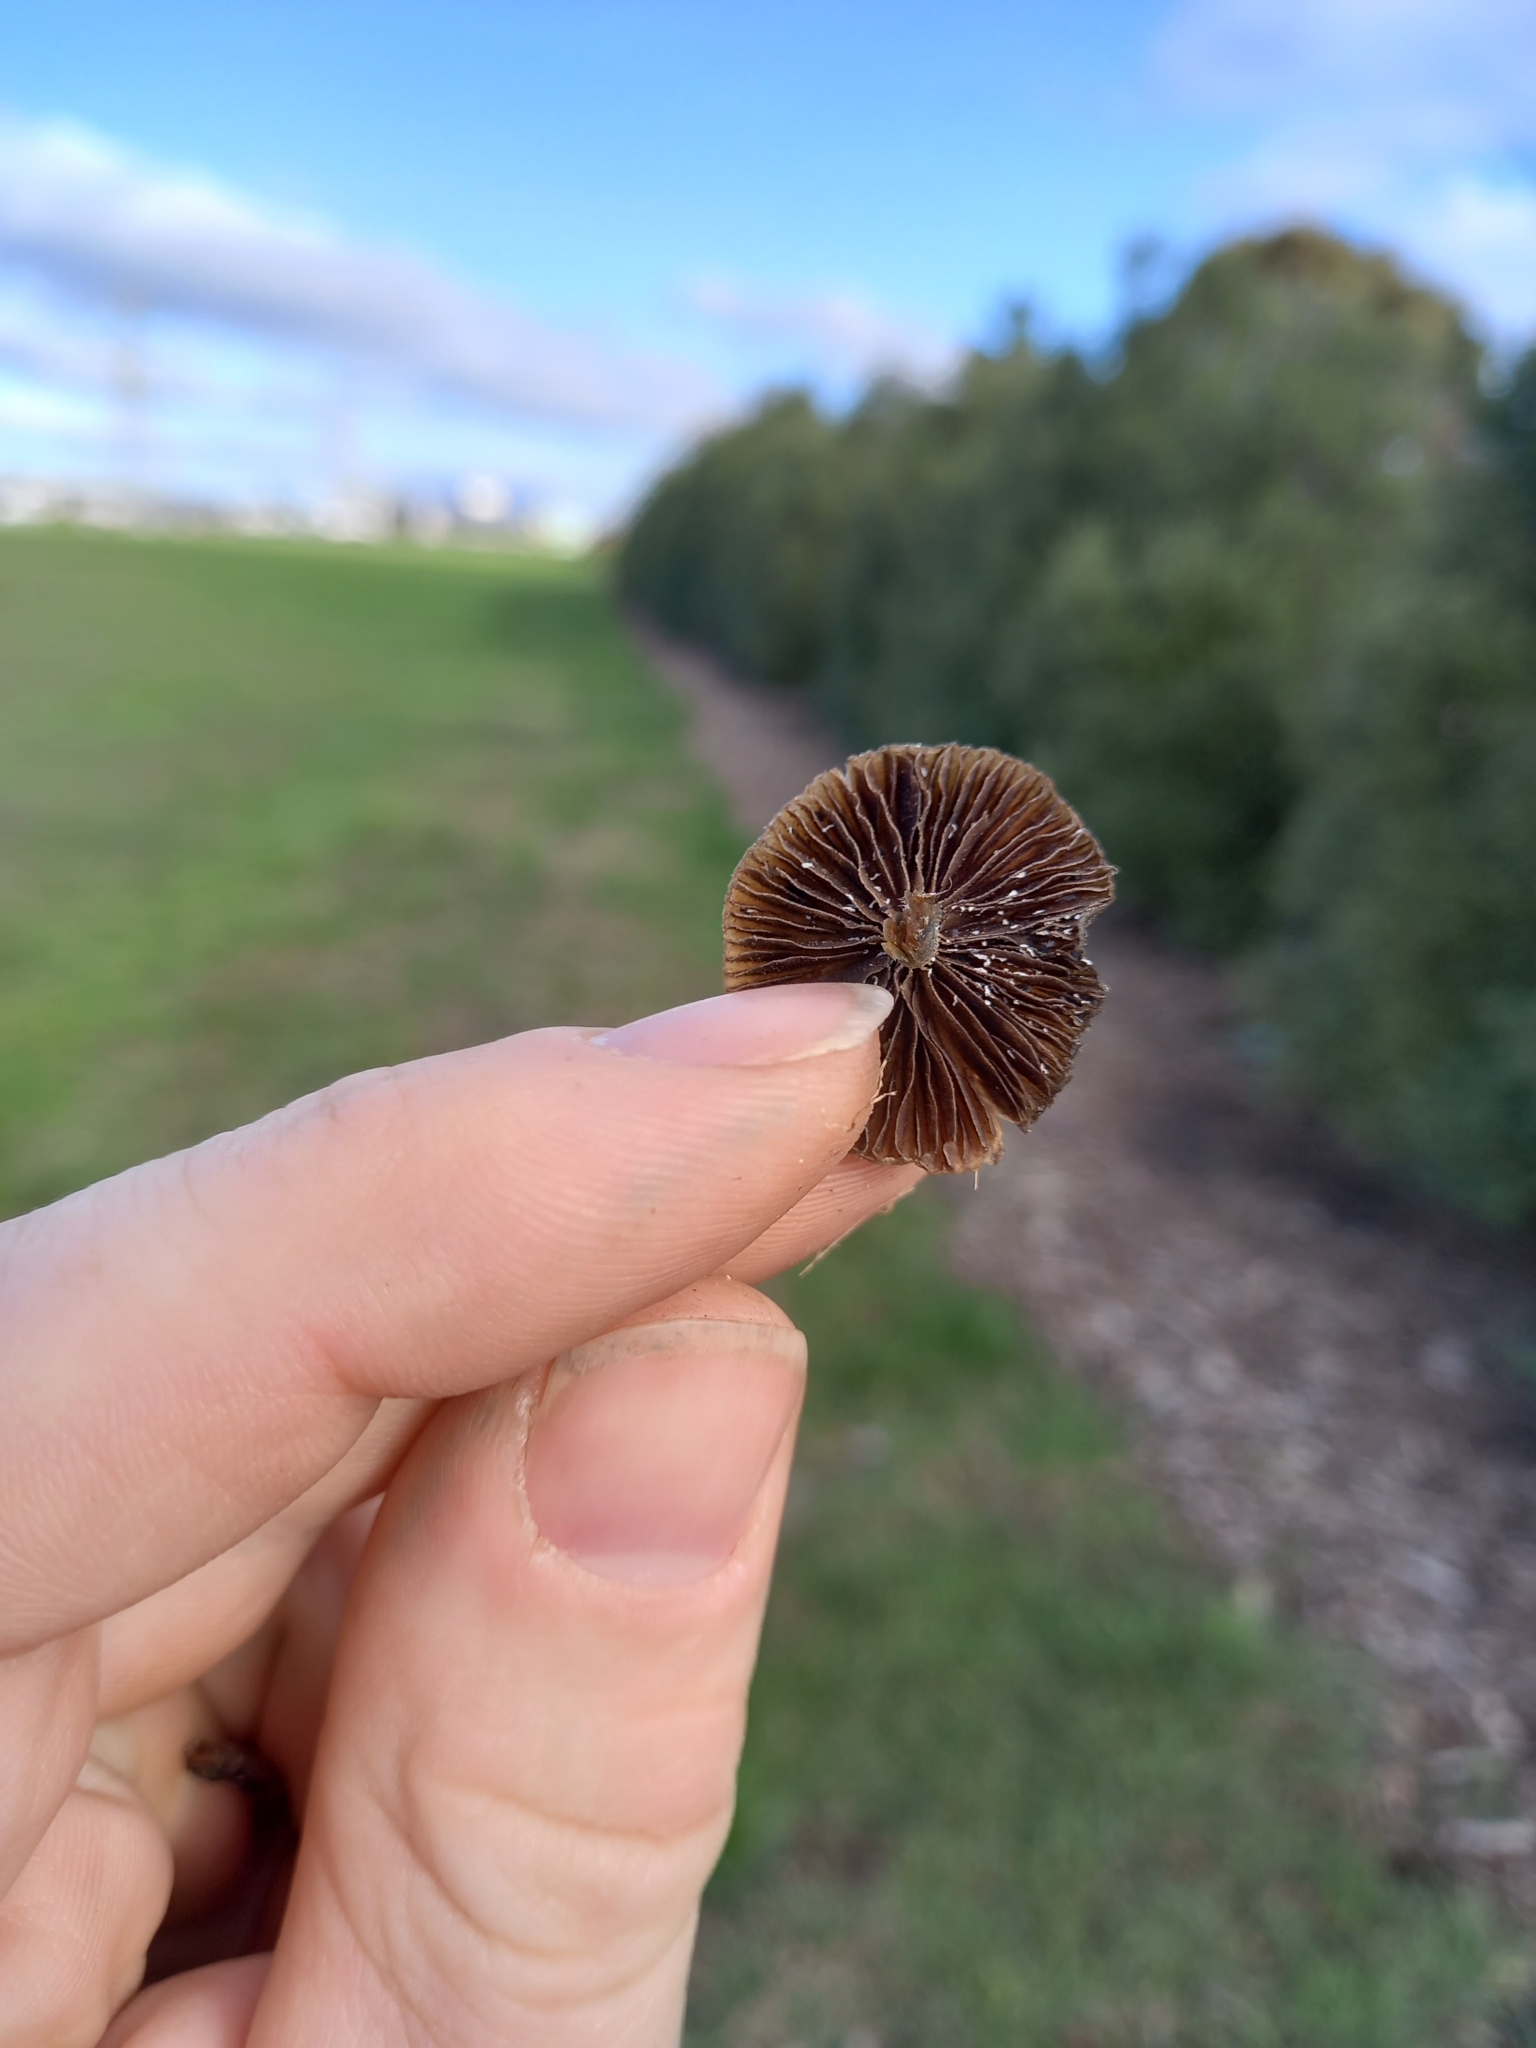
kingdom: Fungi
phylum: Basidiomycota
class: Agaricomycetes
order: Agaricales
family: Hymenogastraceae
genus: Psilocybe
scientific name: Psilocybe subaeruginosa
